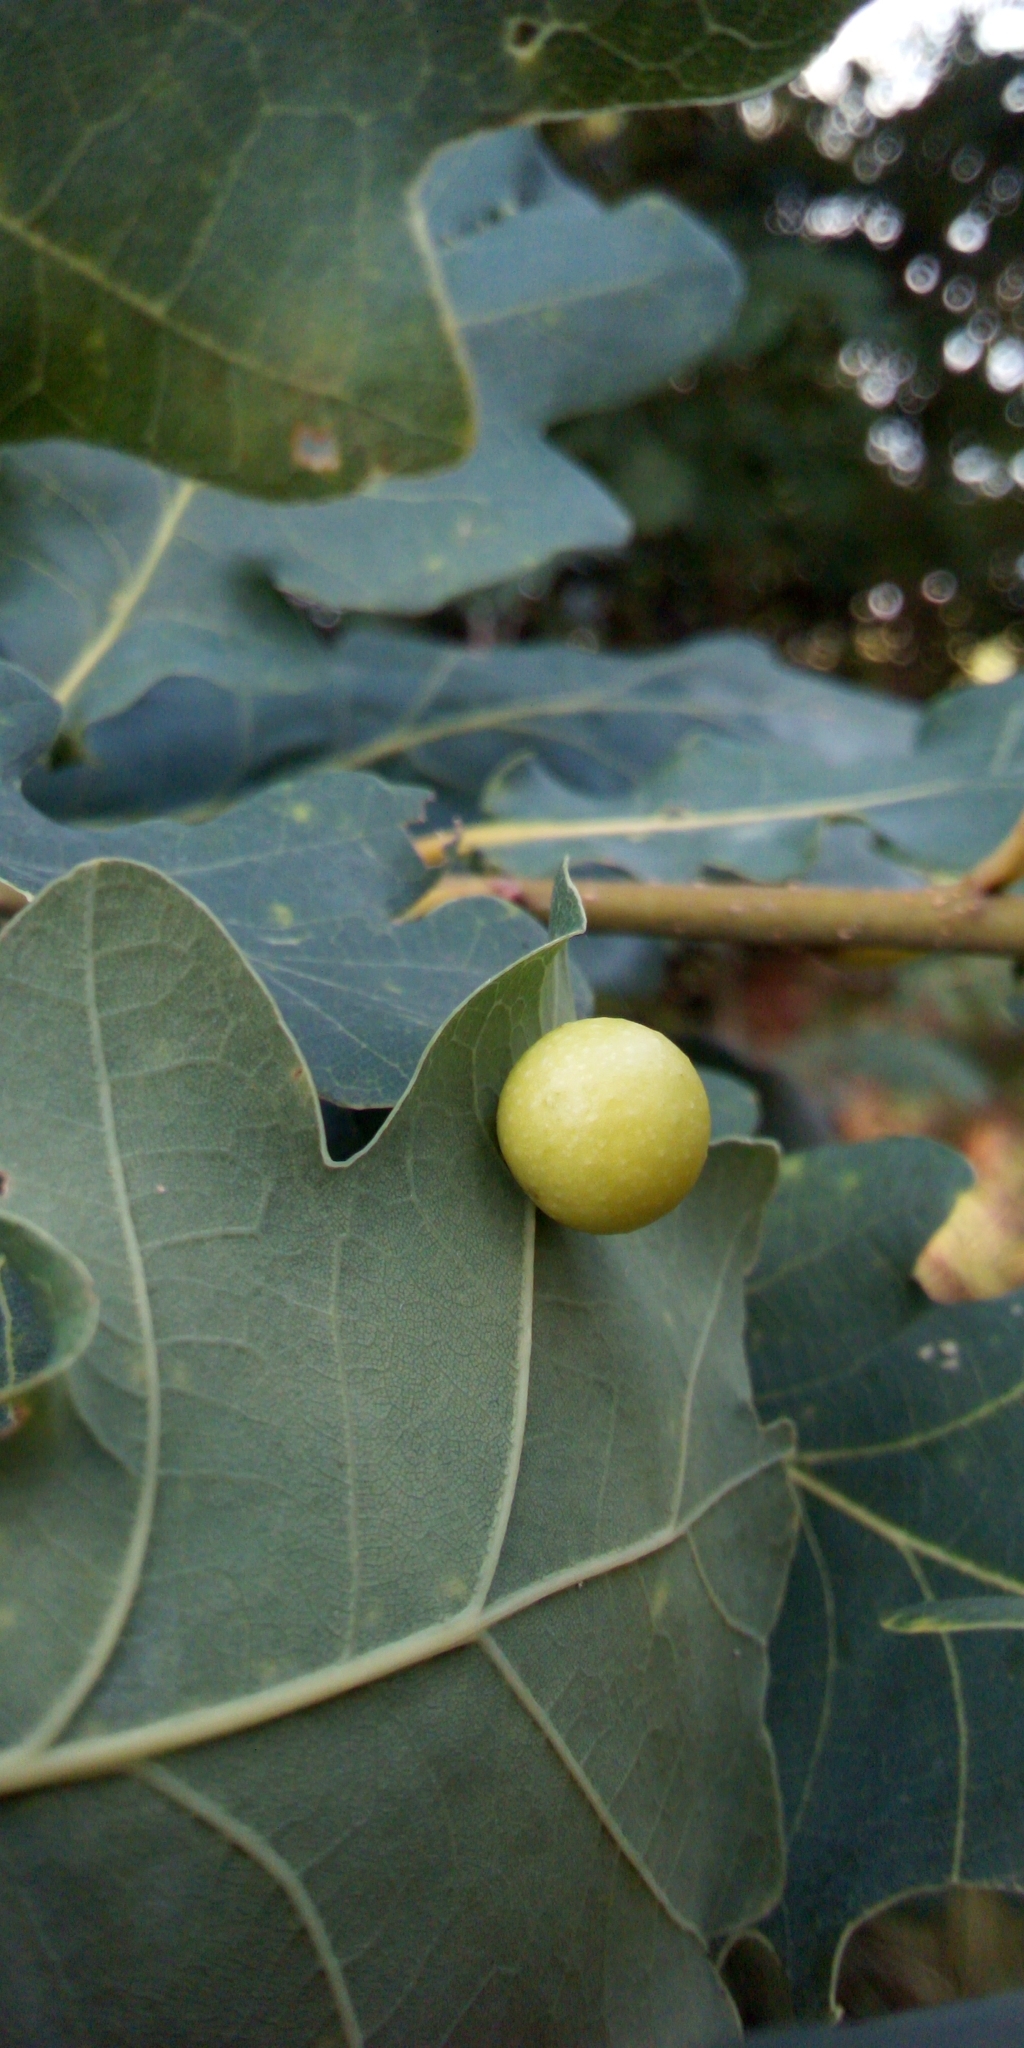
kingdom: Animalia
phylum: Arthropoda
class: Insecta
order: Hymenoptera
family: Cynipidae
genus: Cynips
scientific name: Cynips quercusfolii
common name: Cherry gall
